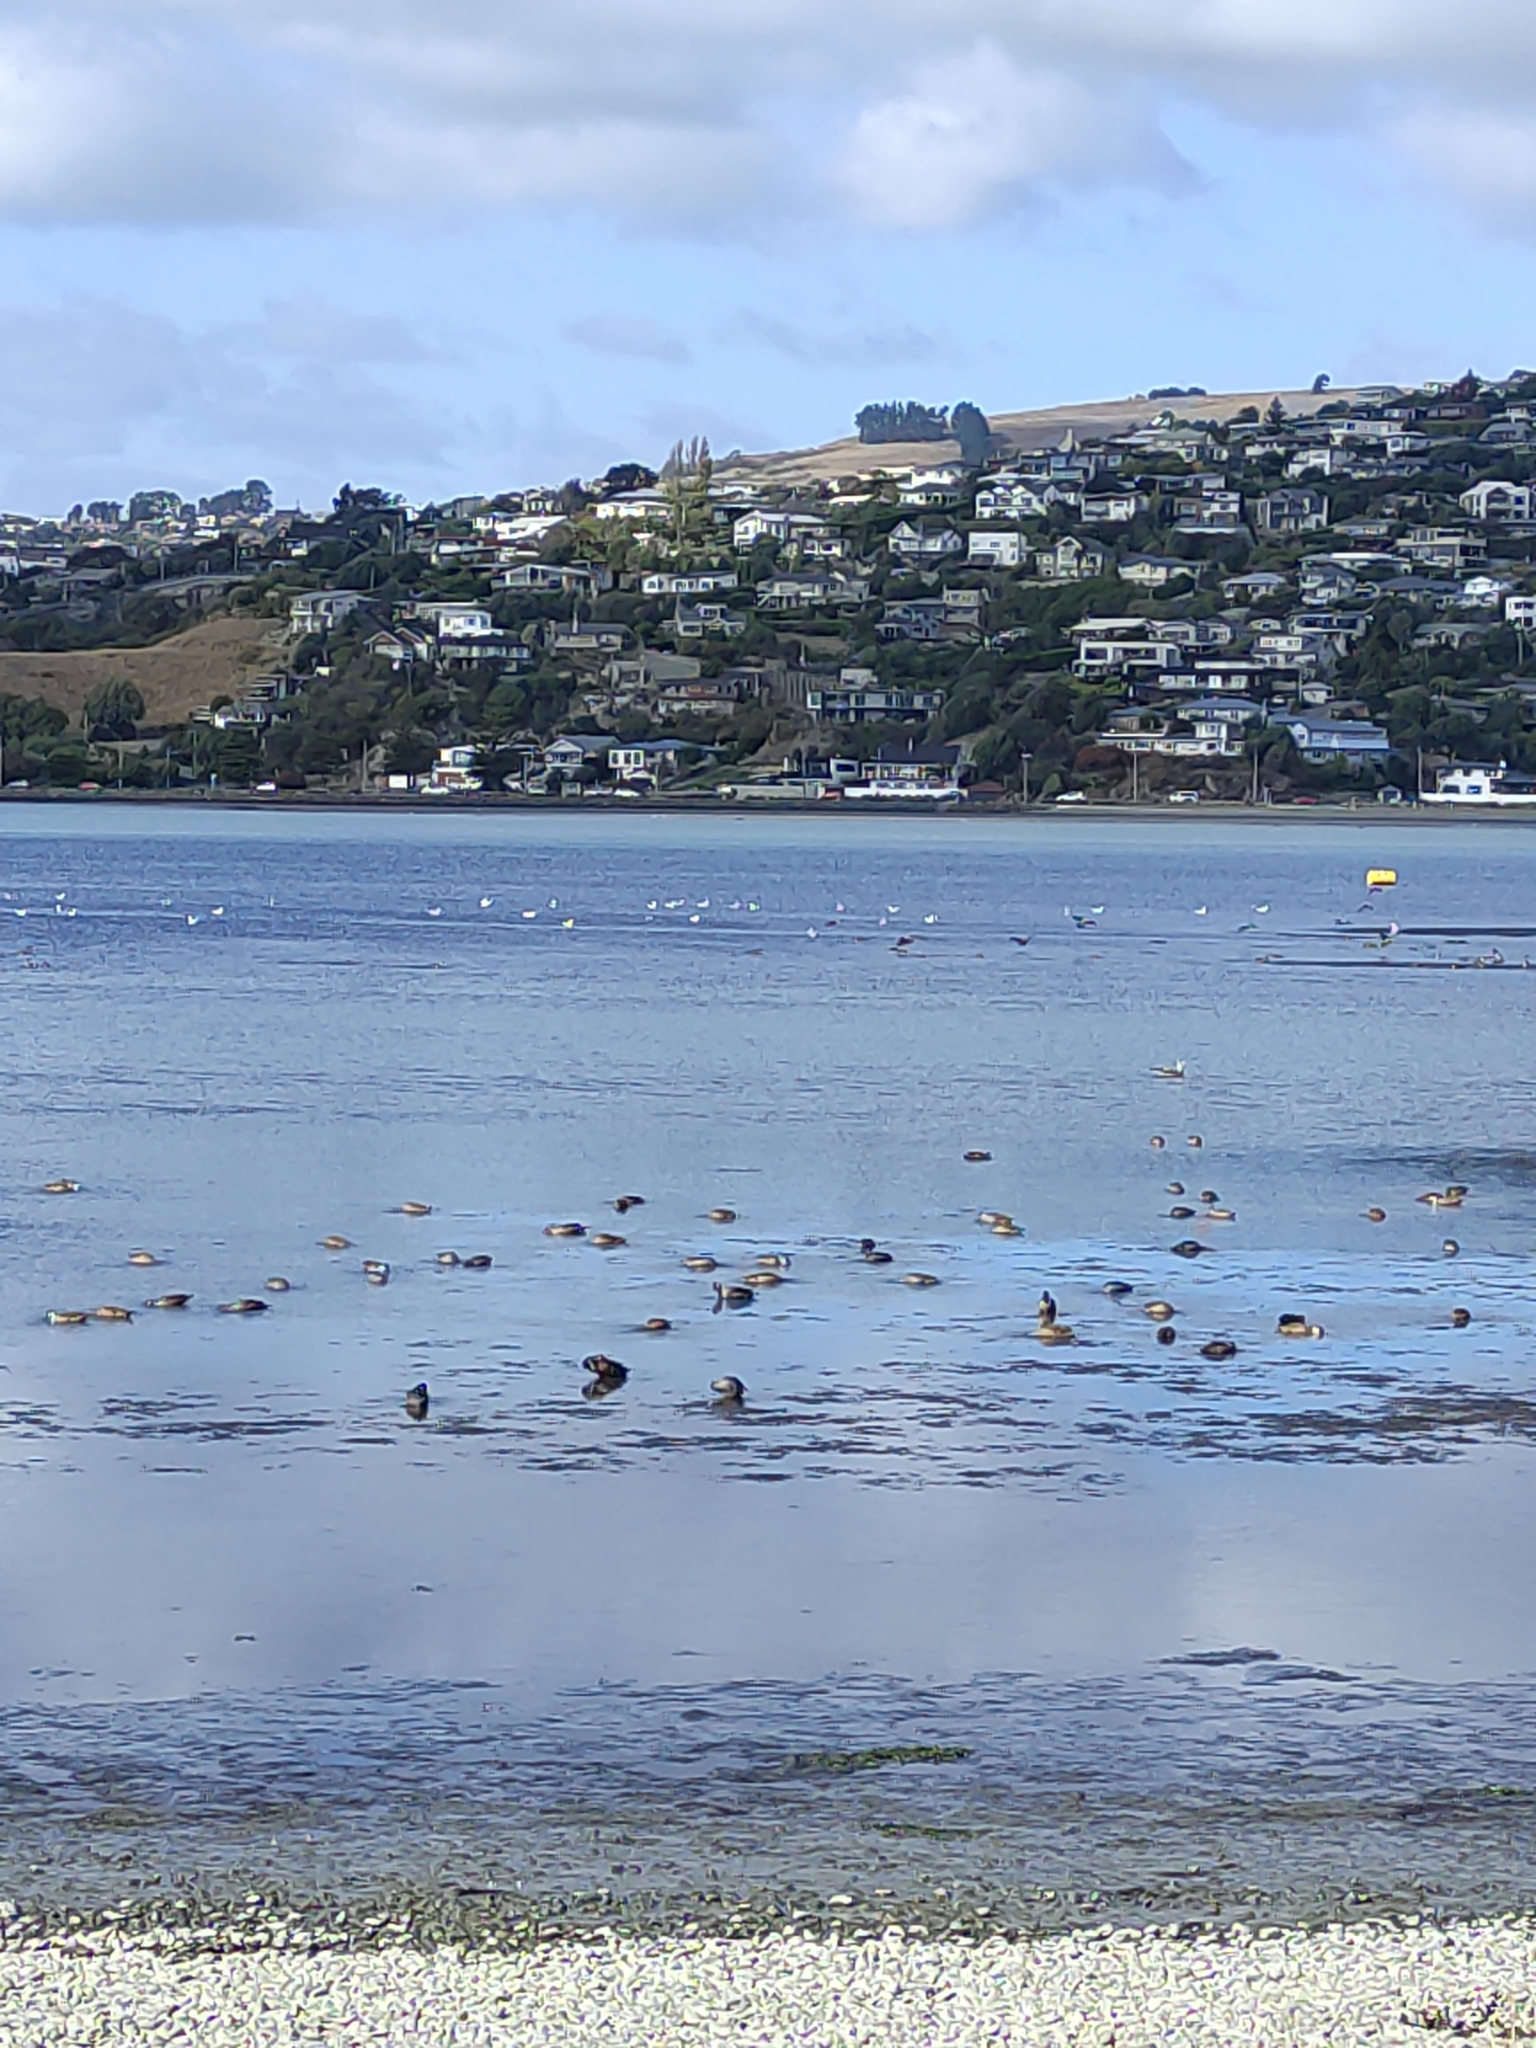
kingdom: Animalia
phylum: Chordata
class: Aves
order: Procellariiformes
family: Procellariidae
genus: Puffinus
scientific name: Puffinus gavia
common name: Fluttering shearwater
